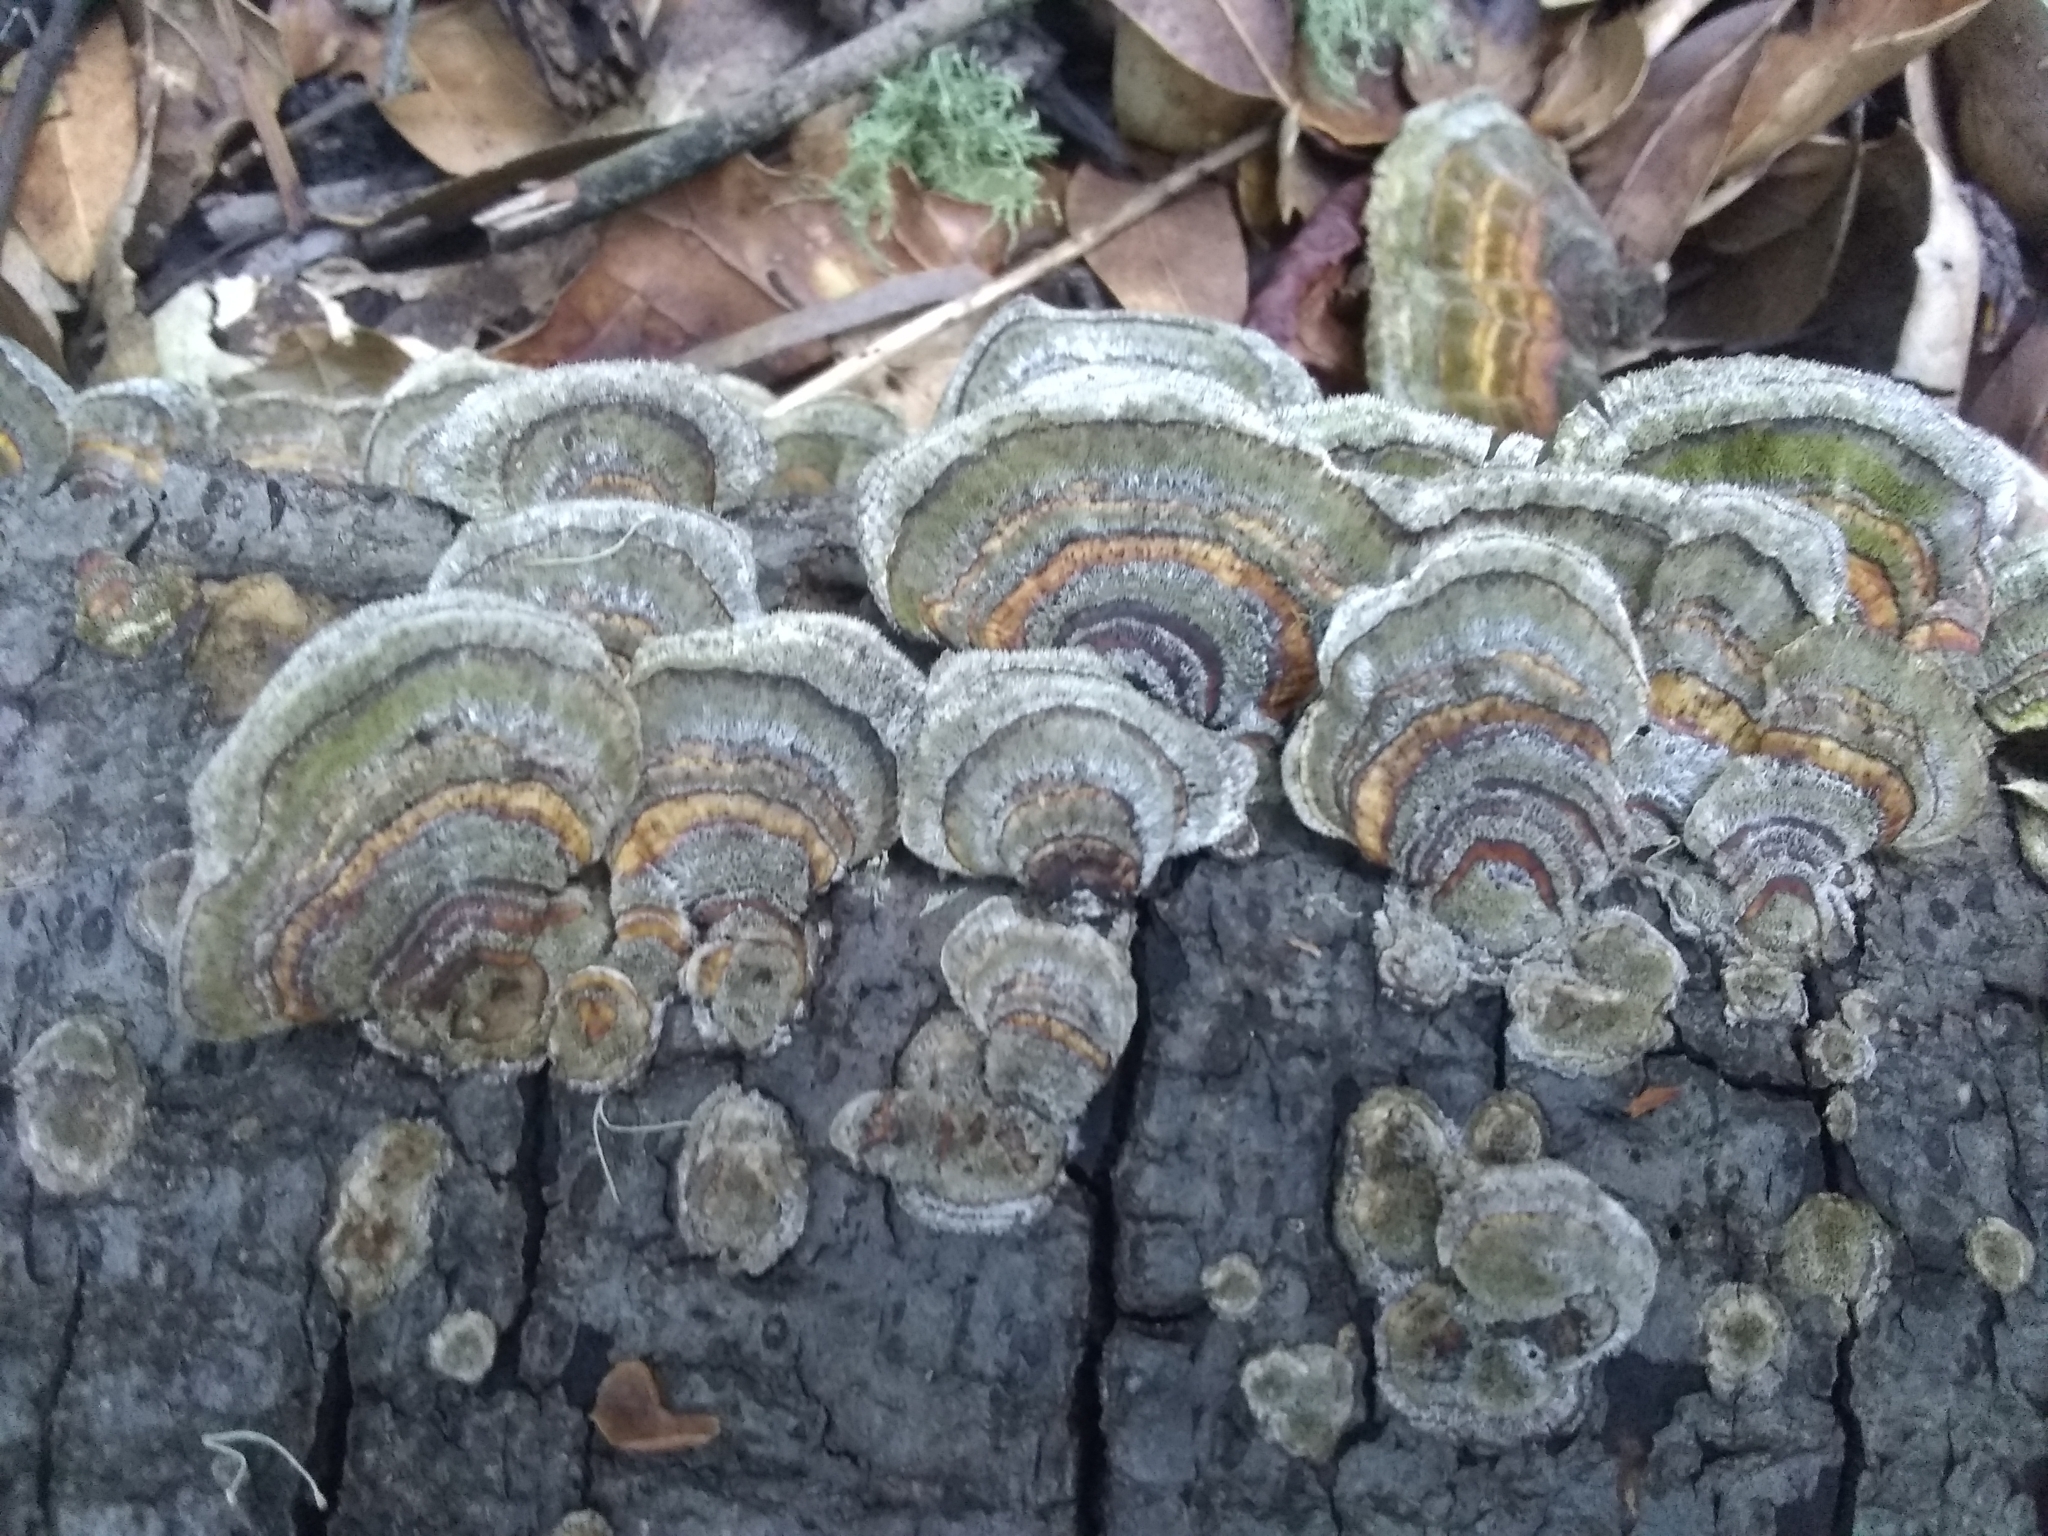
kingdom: Fungi
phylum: Basidiomycota
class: Agaricomycetes
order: Polyporales
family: Polyporaceae
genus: Trametes
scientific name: Trametes versicolor
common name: Turkeytail
